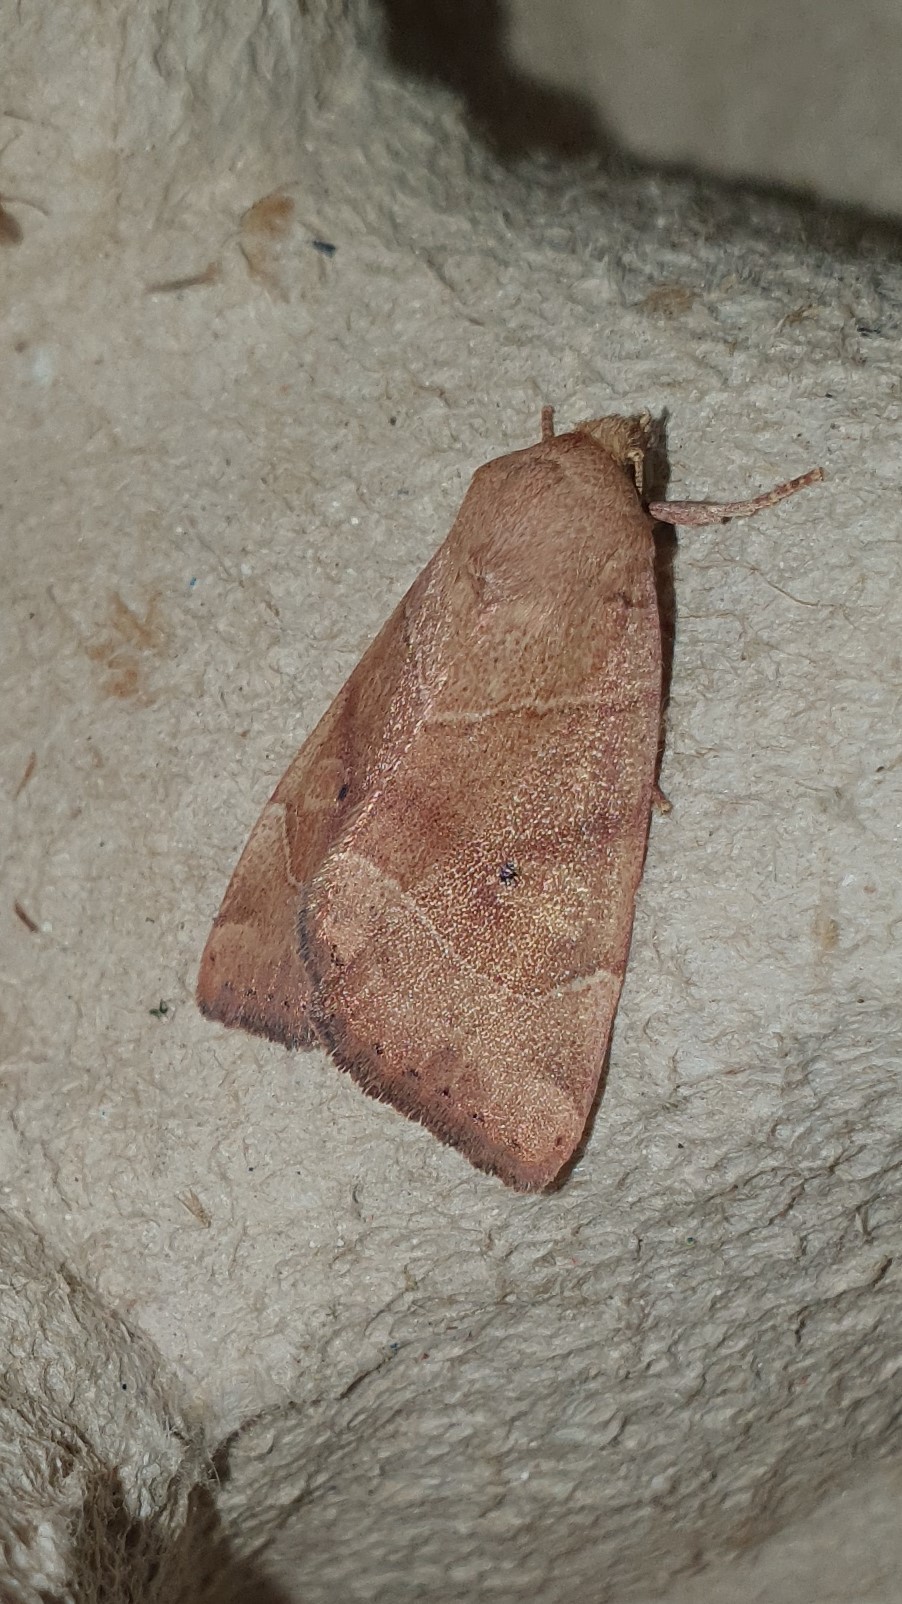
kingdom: Animalia
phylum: Arthropoda
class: Insecta
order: Lepidoptera
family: Noctuidae
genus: Cosmia
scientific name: Cosmia trapezina
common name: Dun-bar
